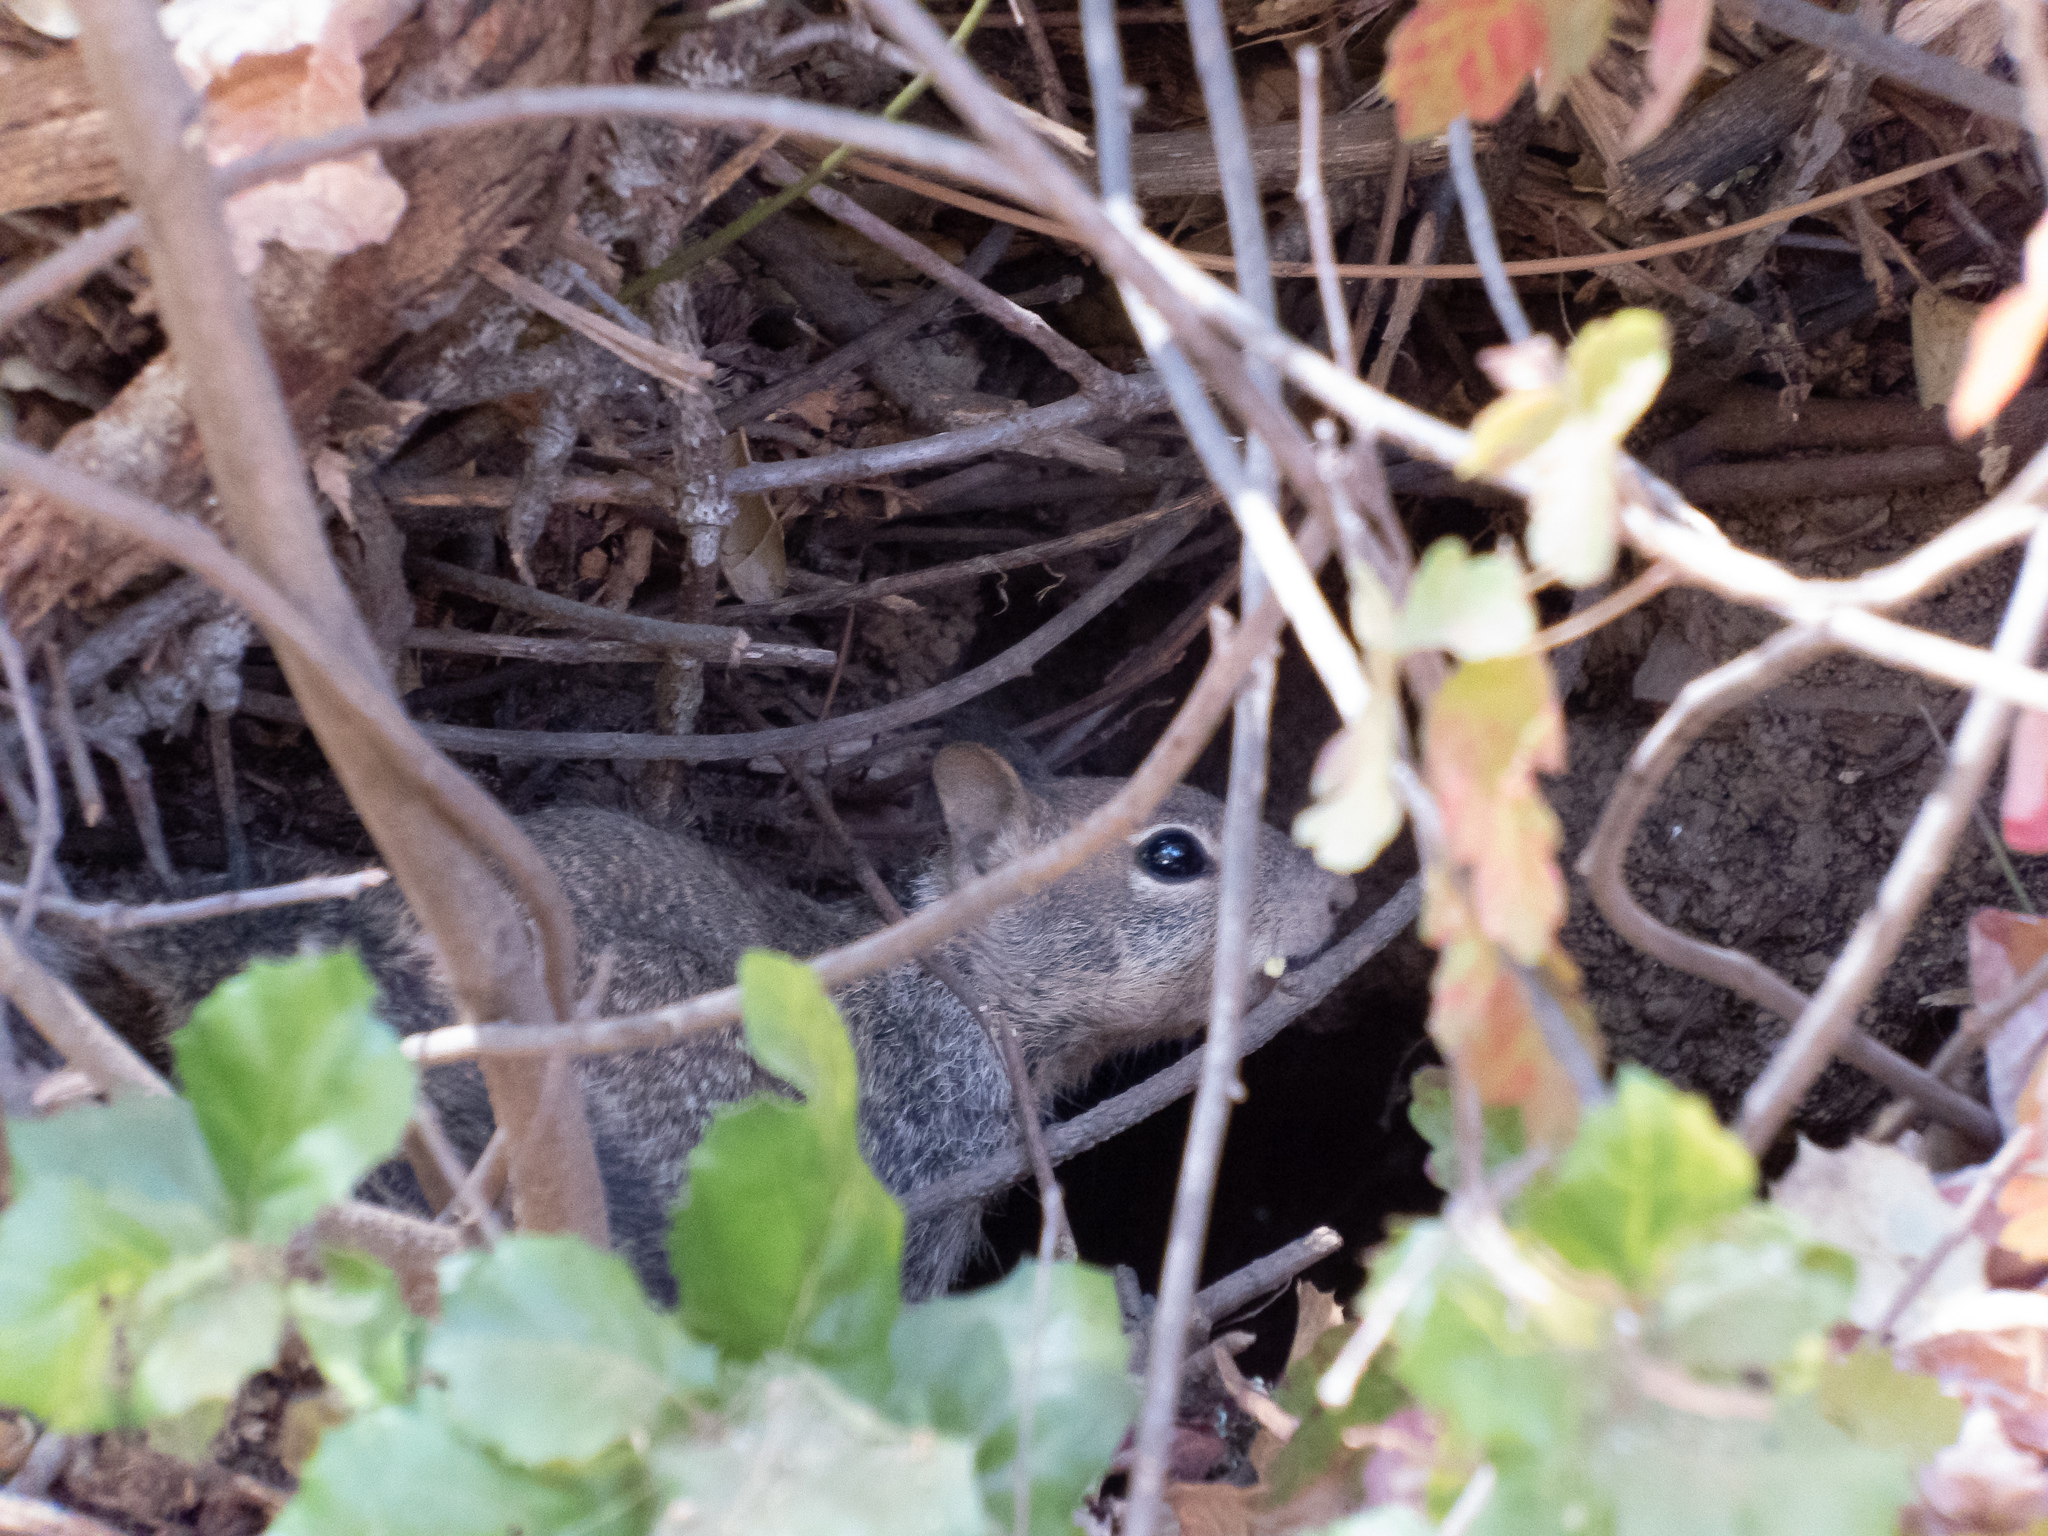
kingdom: Animalia
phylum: Chordata
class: Mammalia
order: Rodentia
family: Sciuridae
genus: Otospermophilus
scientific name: Otospermophilus beecheyi
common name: California ground squirrel
